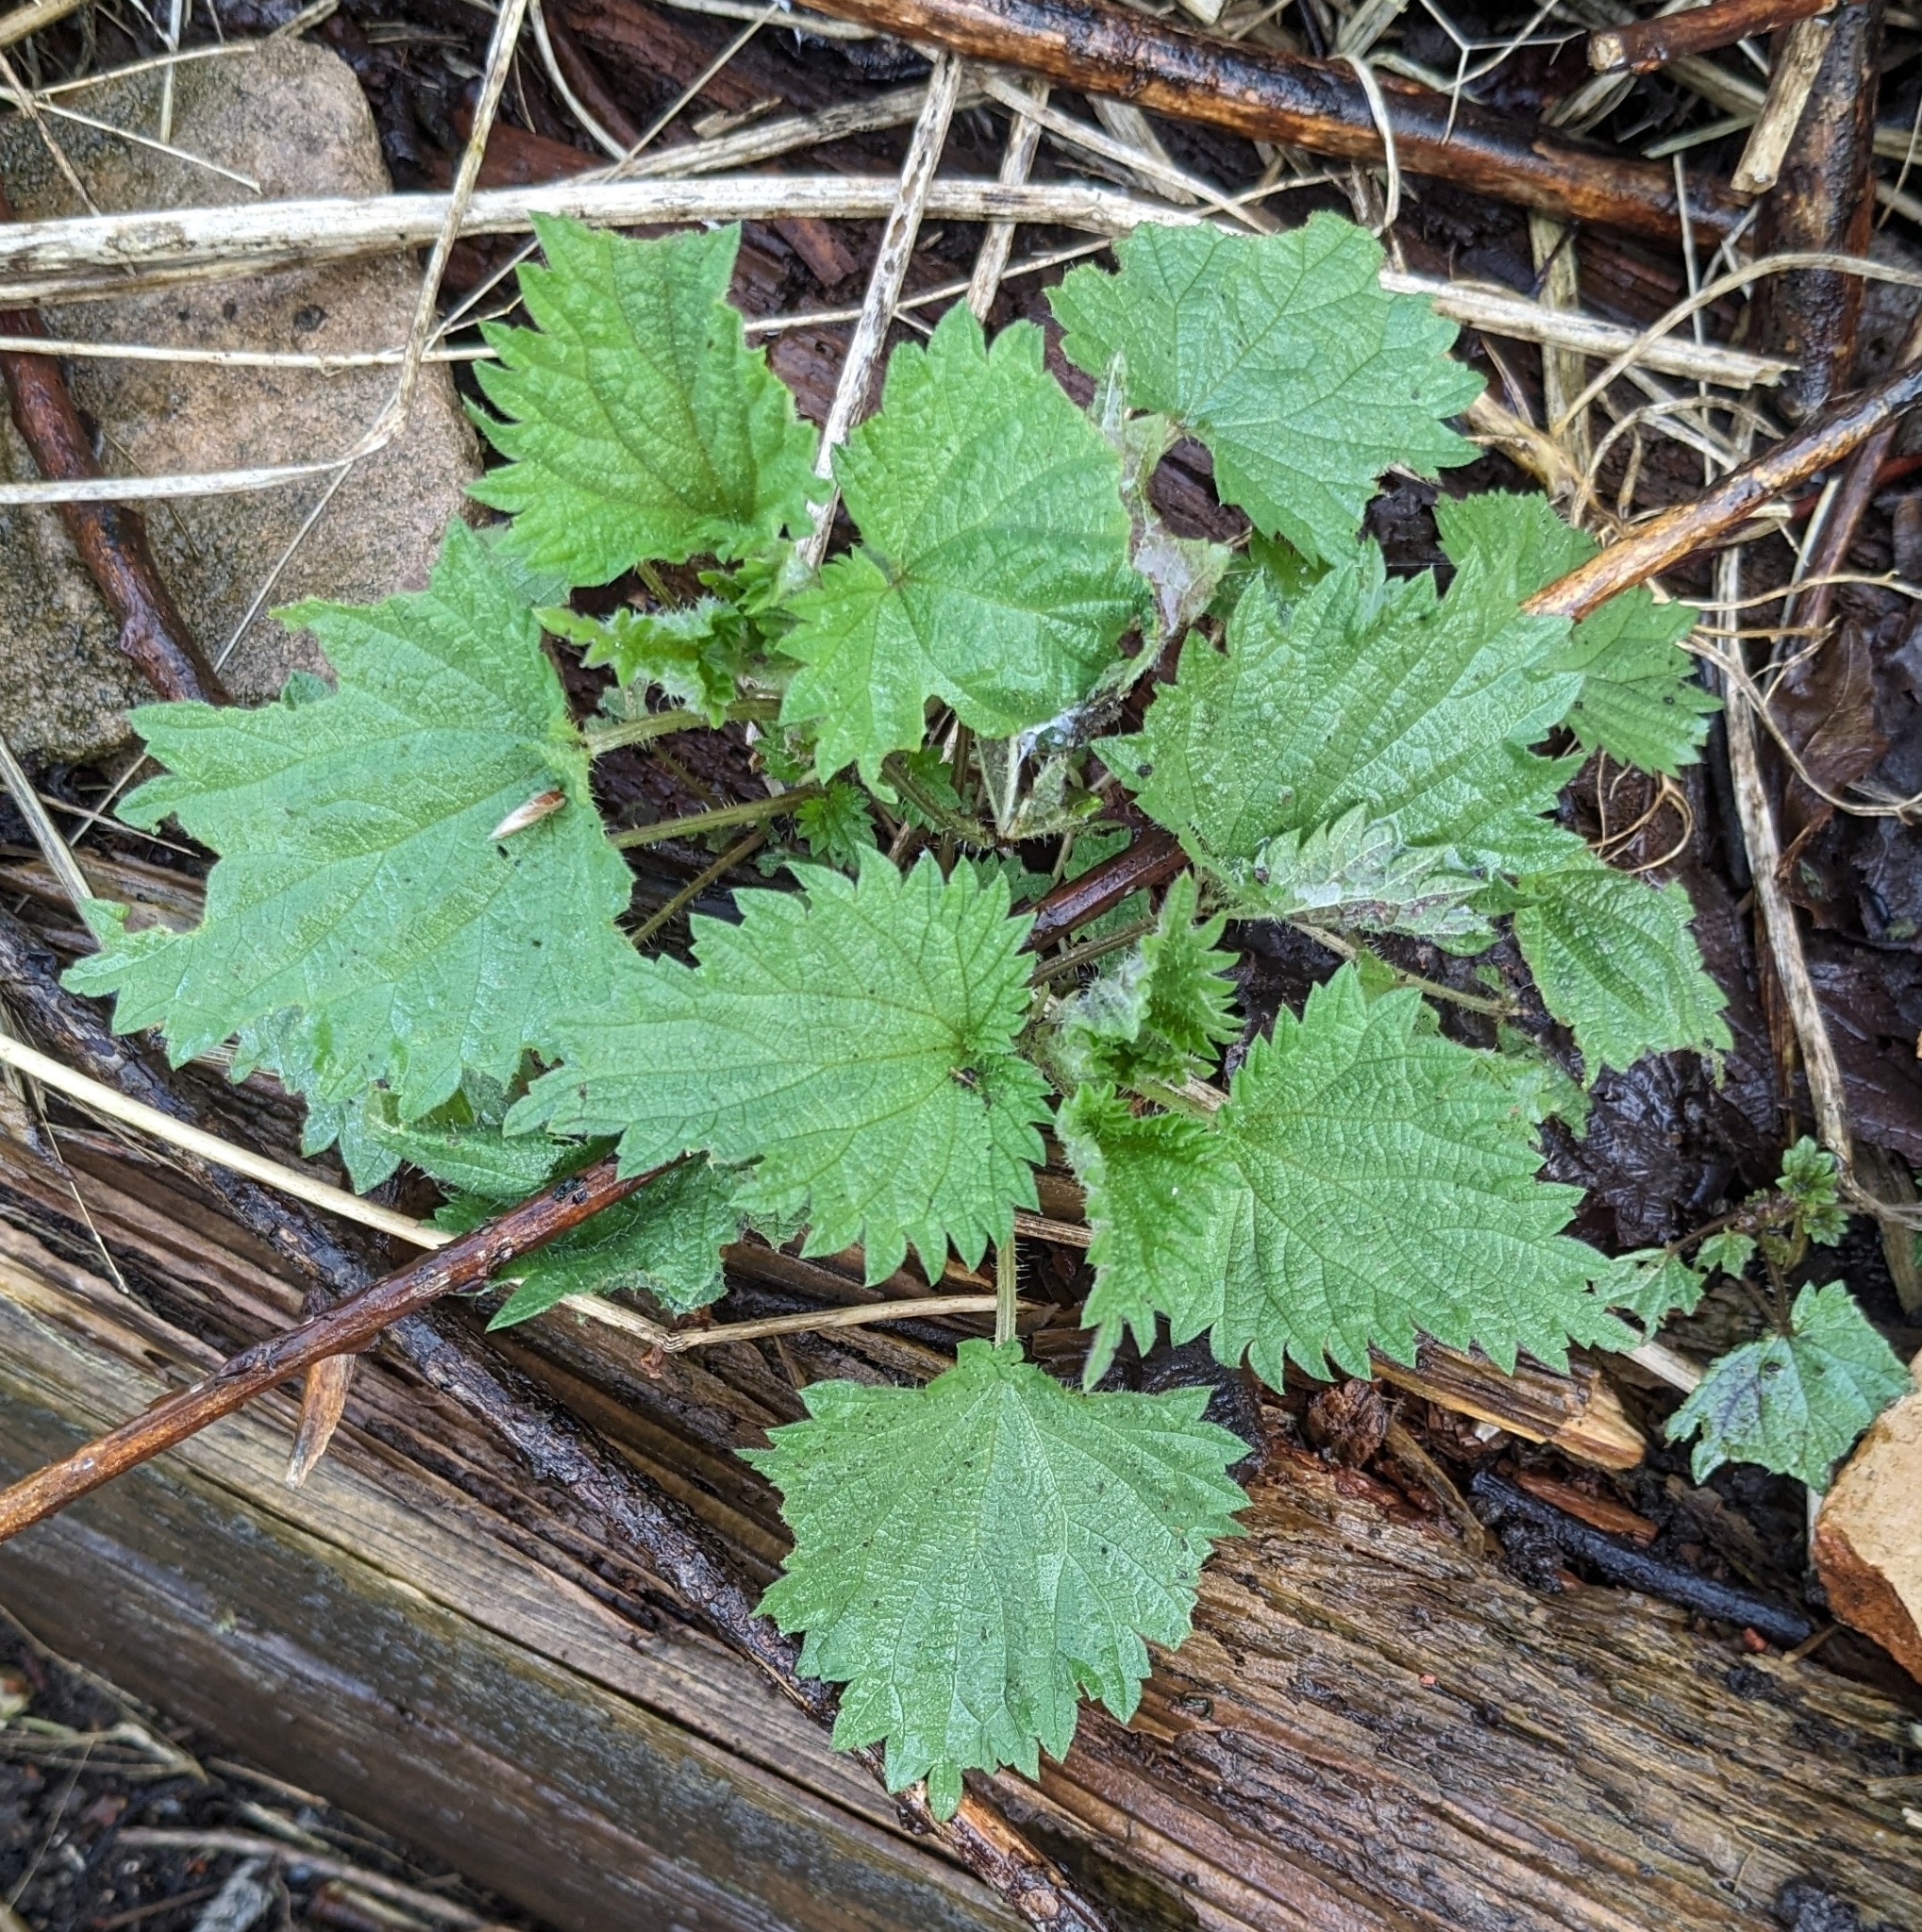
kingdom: Plantae
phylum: Tracheophyta
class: Magnoliopsida
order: Rosales
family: Urticaceae
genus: Urtica
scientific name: Urtica dioica
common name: Common nettle
